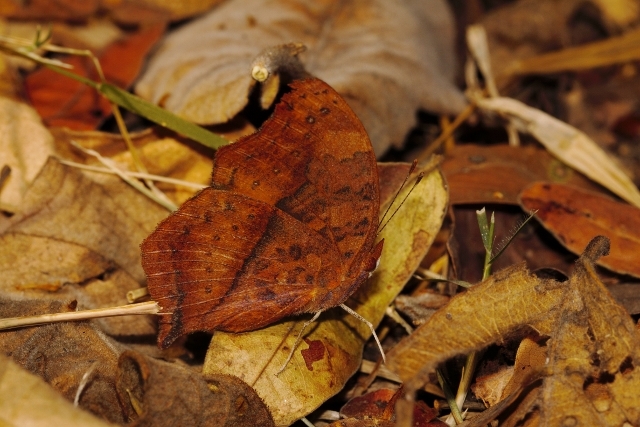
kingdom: Animalia
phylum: Arthropoda
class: Insecta
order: Lepidoptera
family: Nymphalidae
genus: Junonia
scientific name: Junonia antilope
